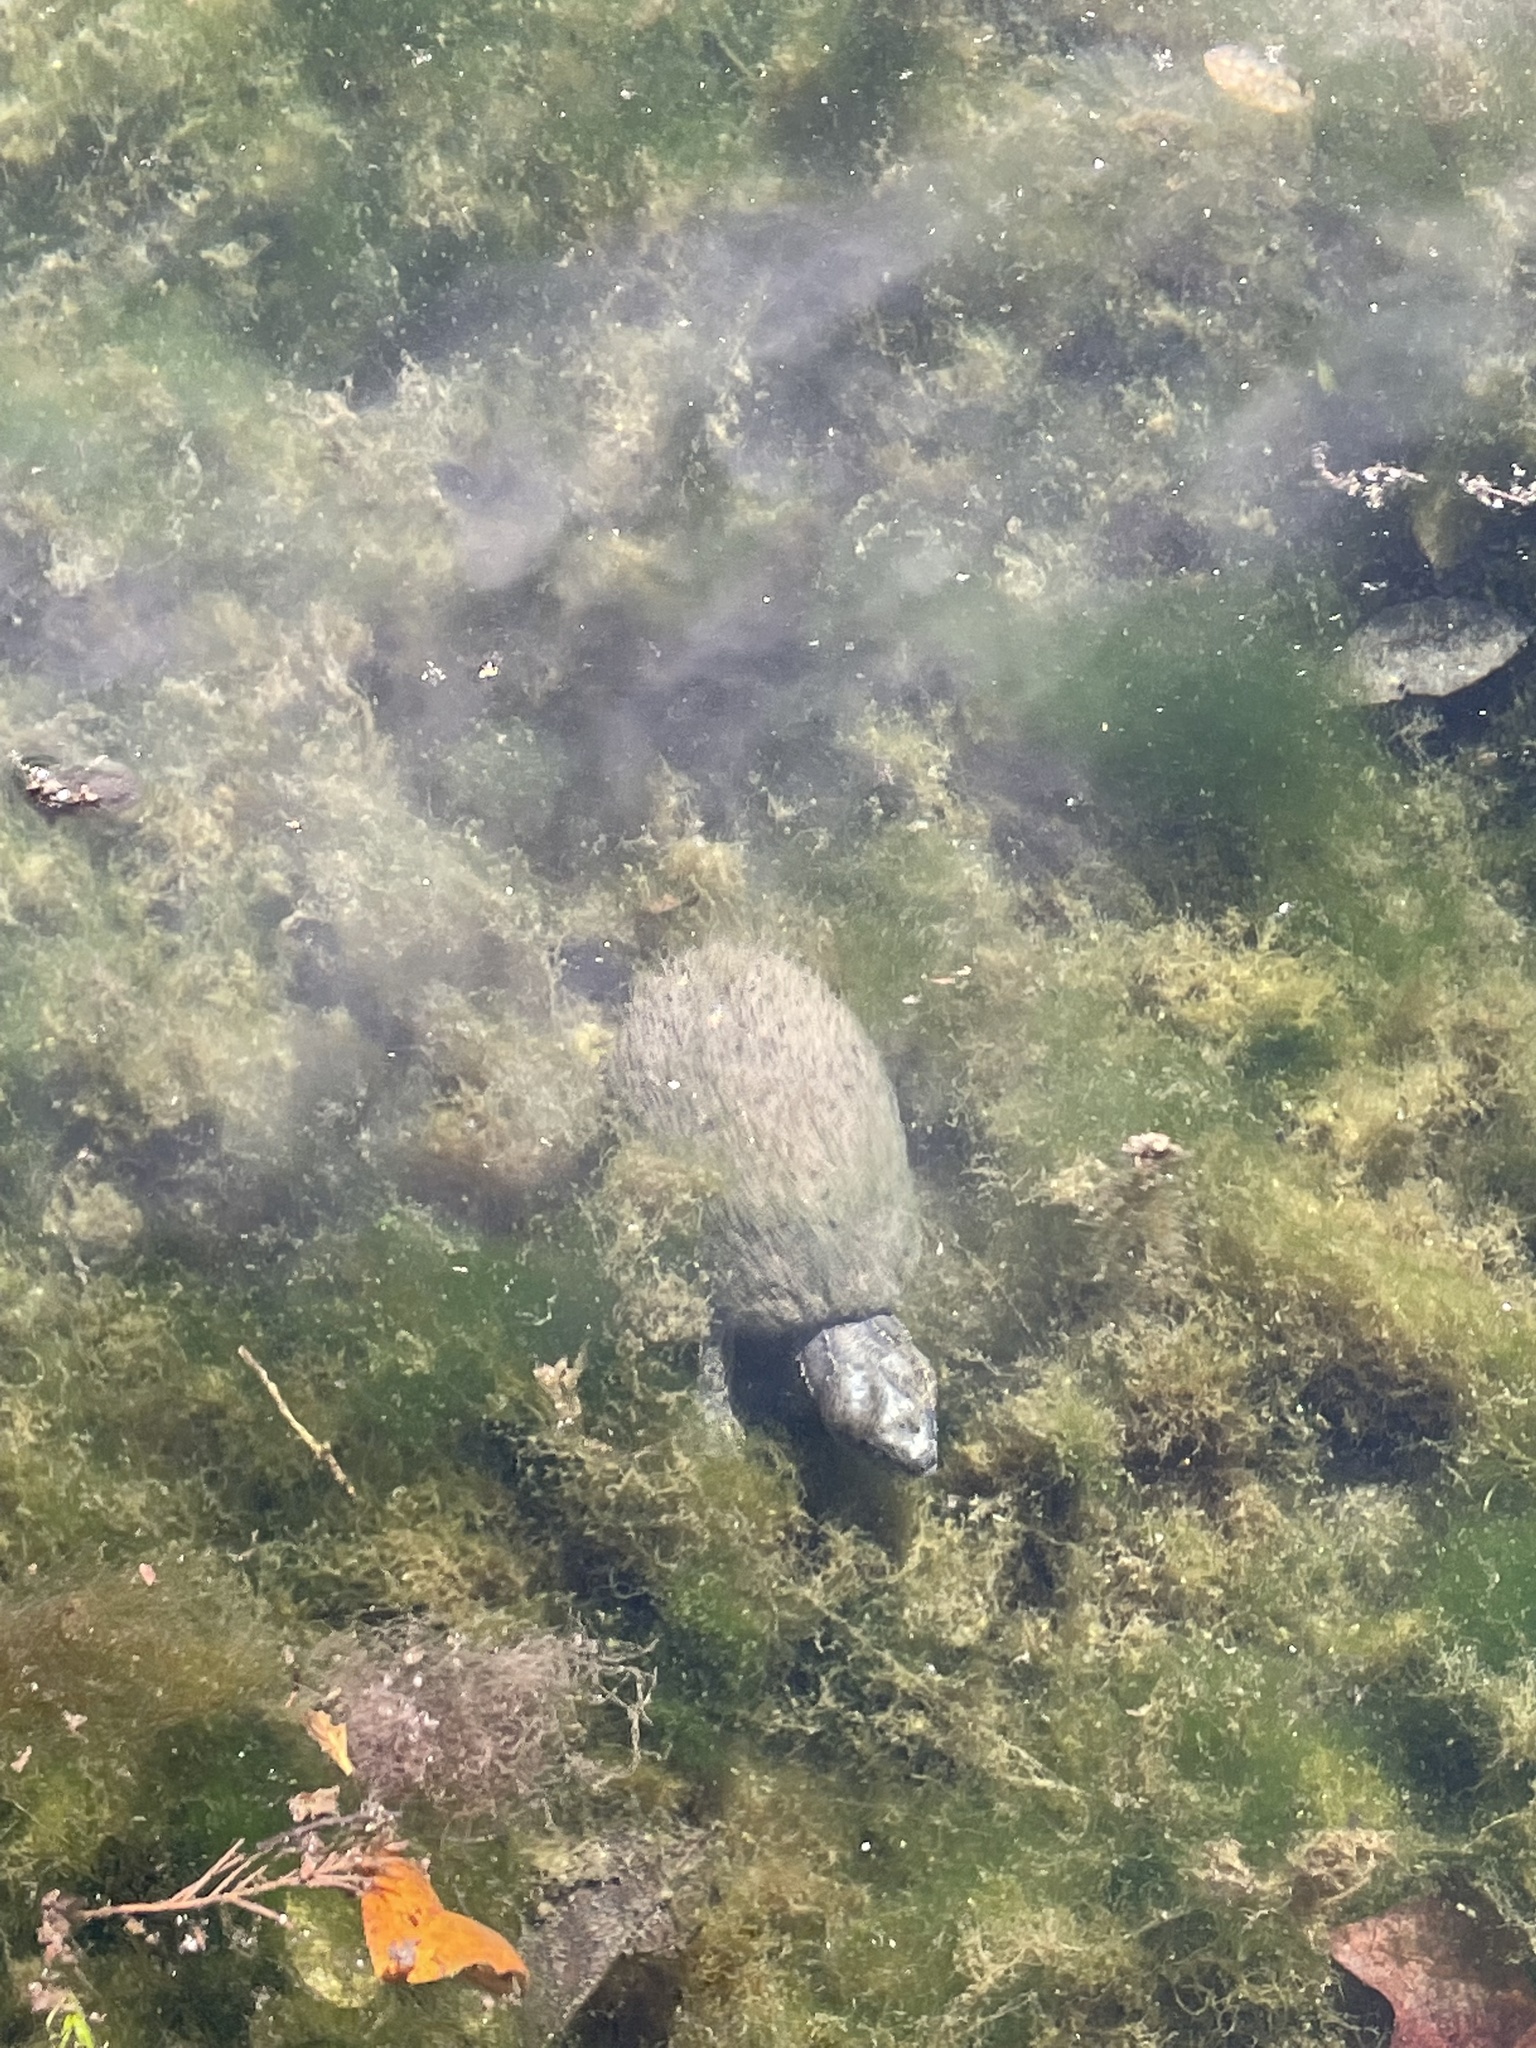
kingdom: Animalia
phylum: Chordata
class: Testudines
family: Kinosternidae
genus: Sternotherus
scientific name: Sternotherus odoratus
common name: Common musk turtle
